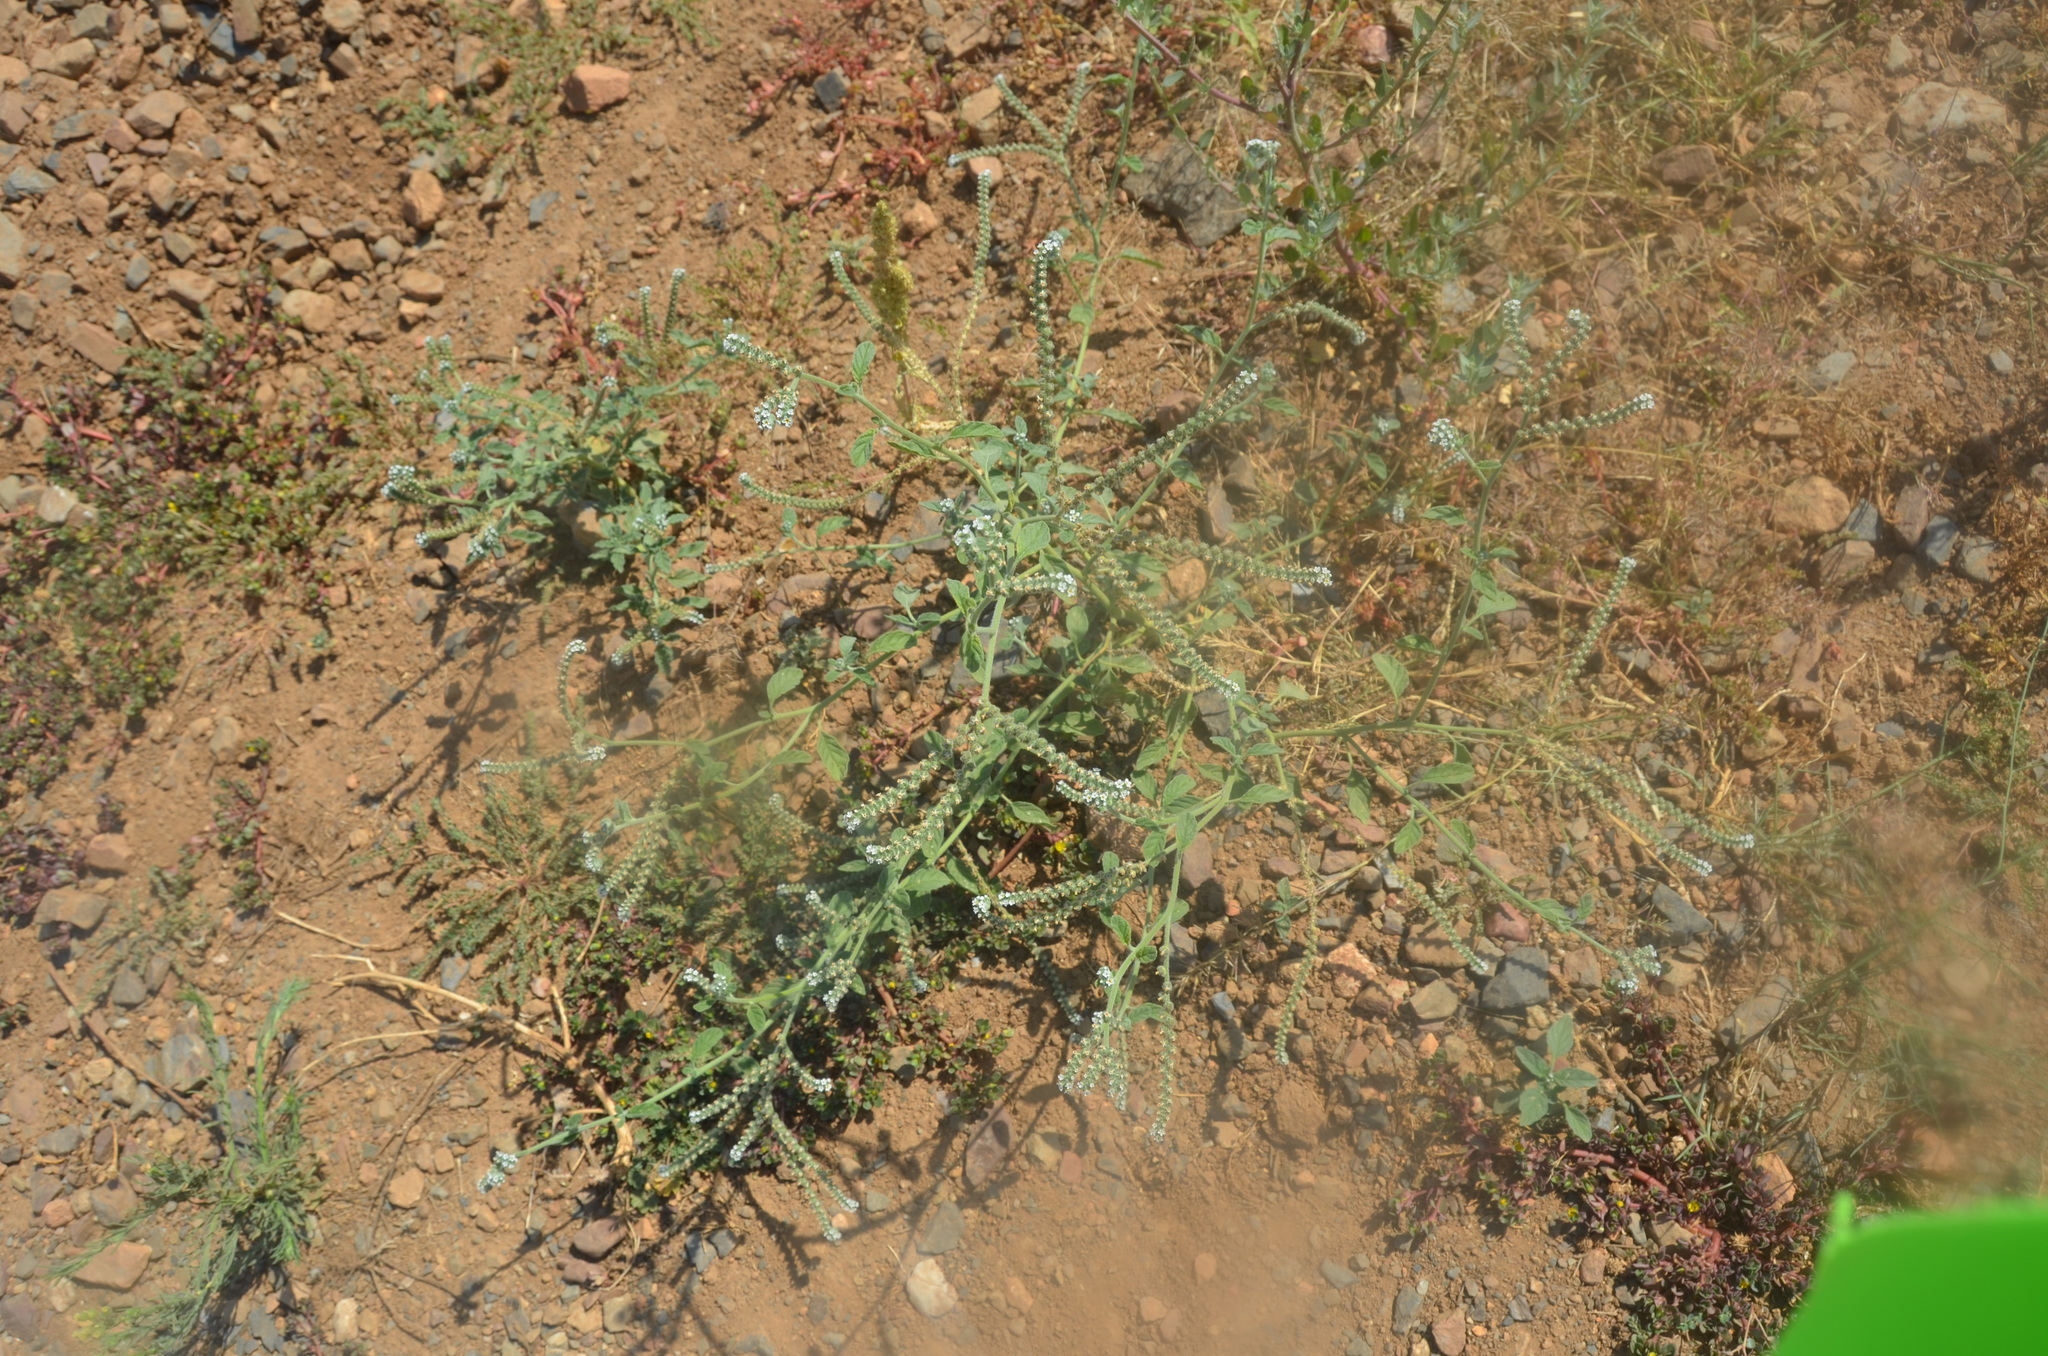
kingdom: Plantae
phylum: Tracheophyta
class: Magnoliopsida
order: Boraginales
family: Heliotropiaceae
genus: Heliotropium
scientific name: Heliotropium europaeum
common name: European heliotrope
